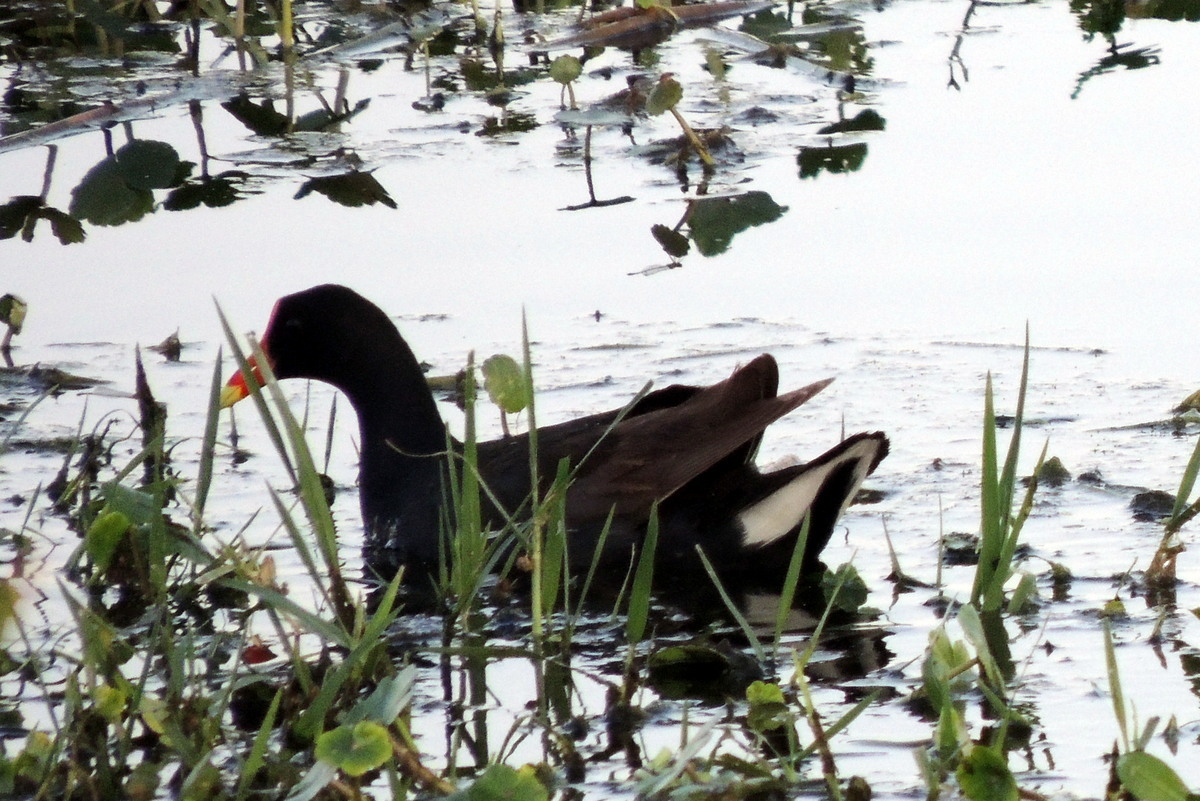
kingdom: Animalia
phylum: Chordata
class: Aves
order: Gruiformes
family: Rallidae
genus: Gallinula
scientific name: Gallinula chloropus
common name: Common moorhen
